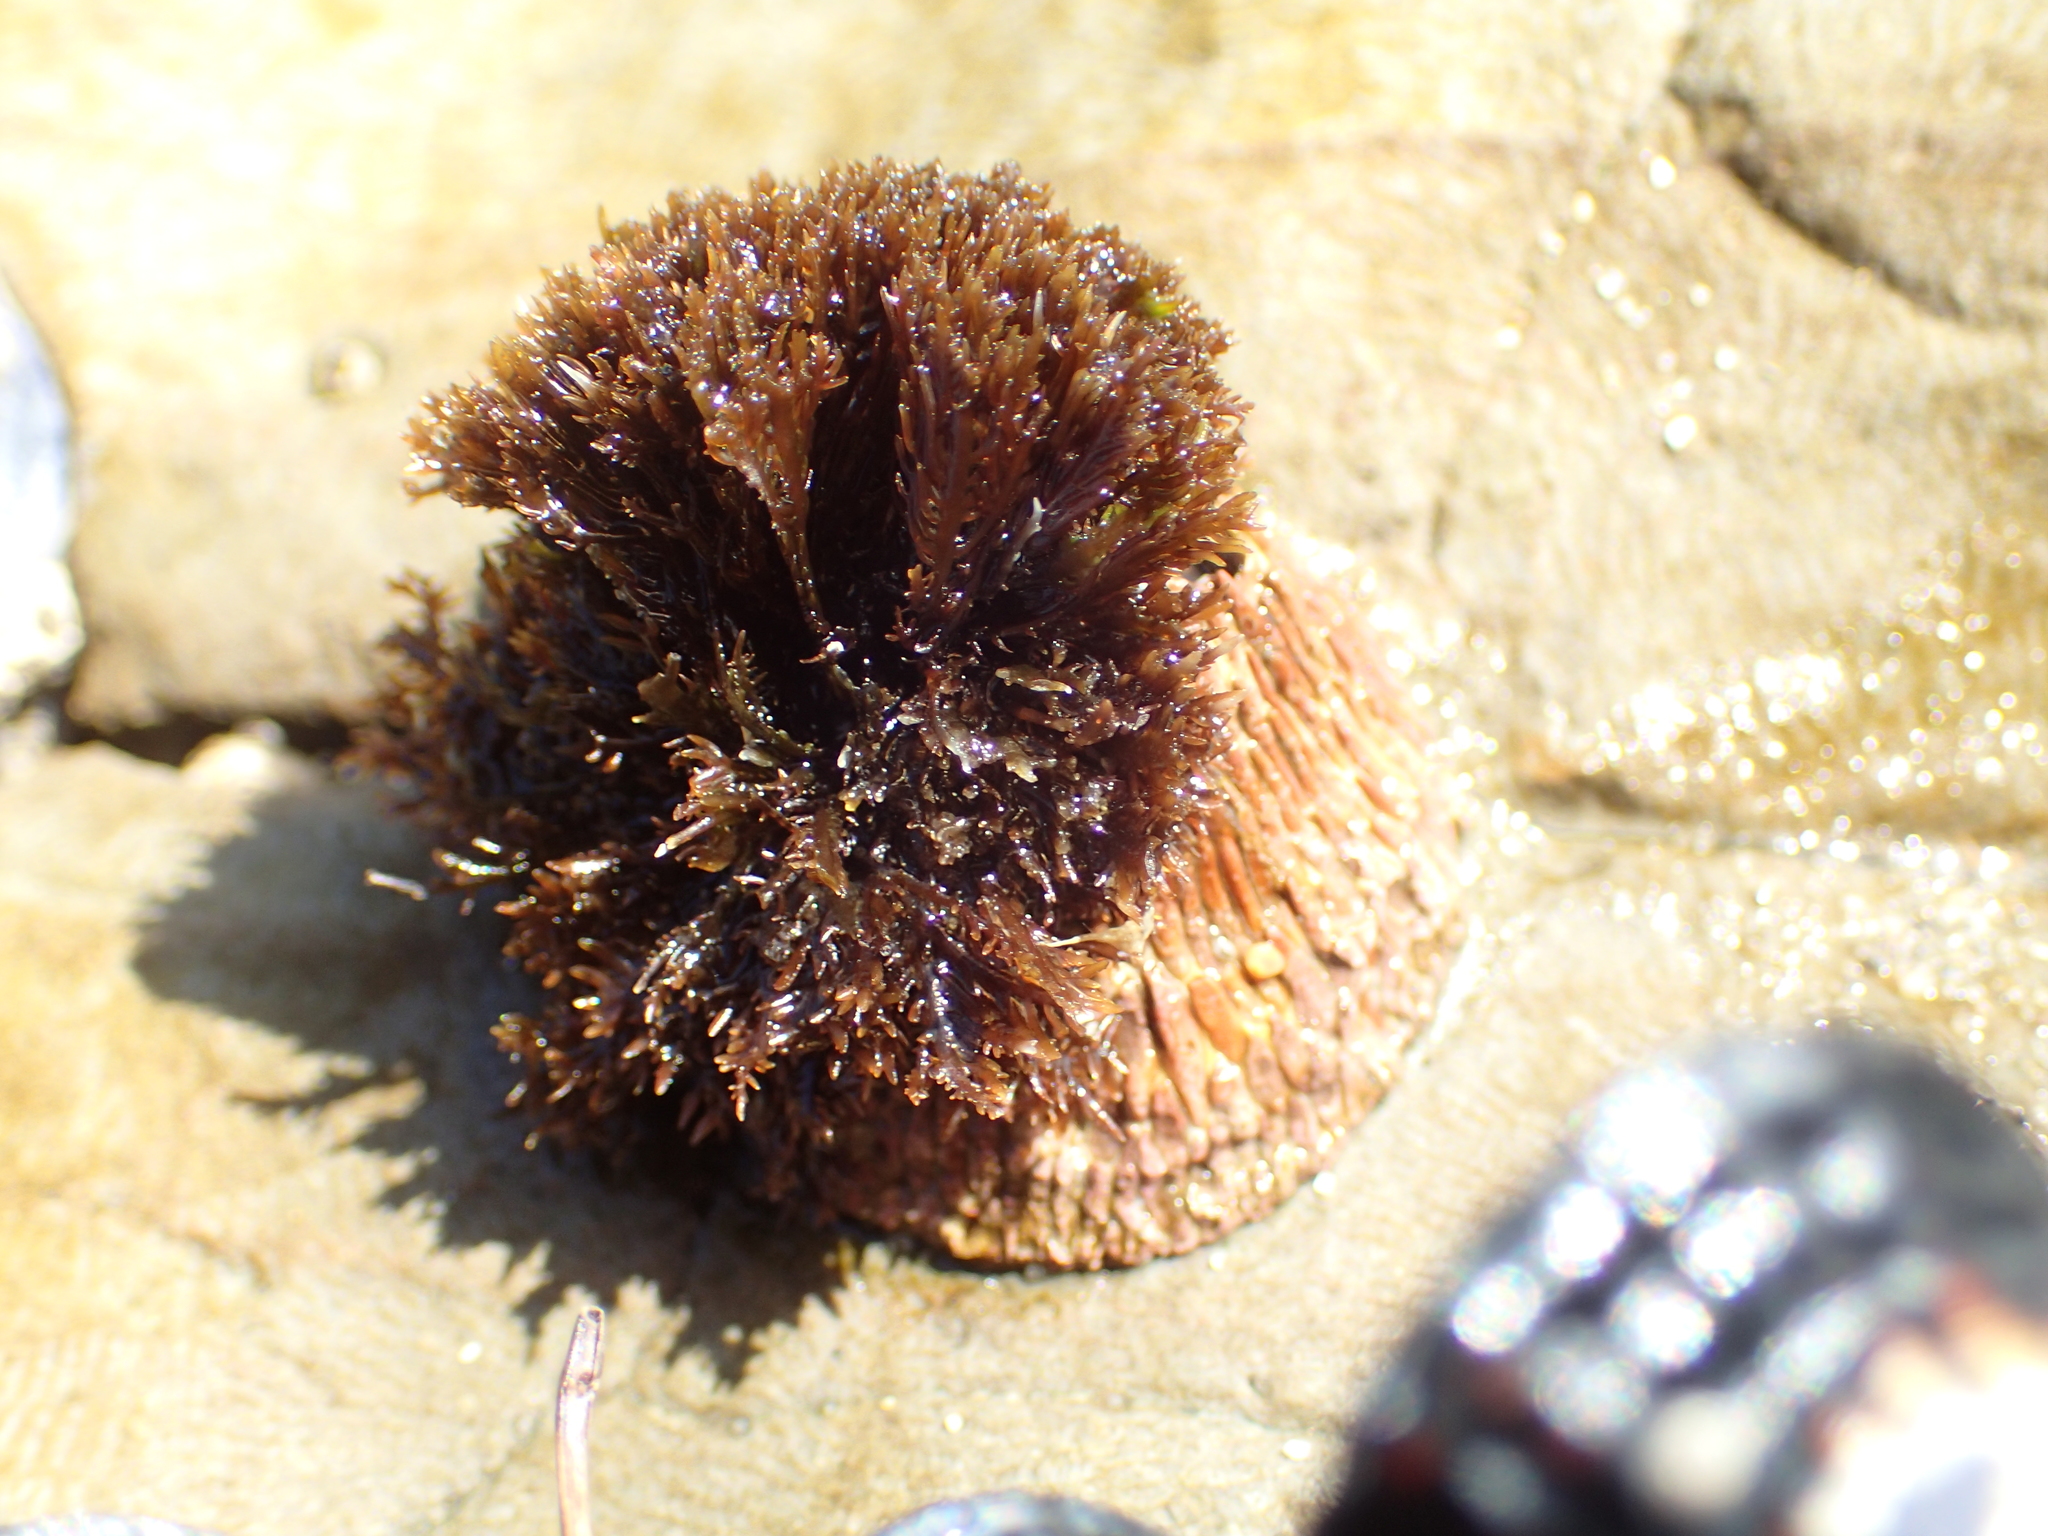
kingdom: Plantae
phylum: Rhodophyta
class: Florideophyceae
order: Gigartinales
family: Endocladiaceae
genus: Endocladia
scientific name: Endocladia muricata
